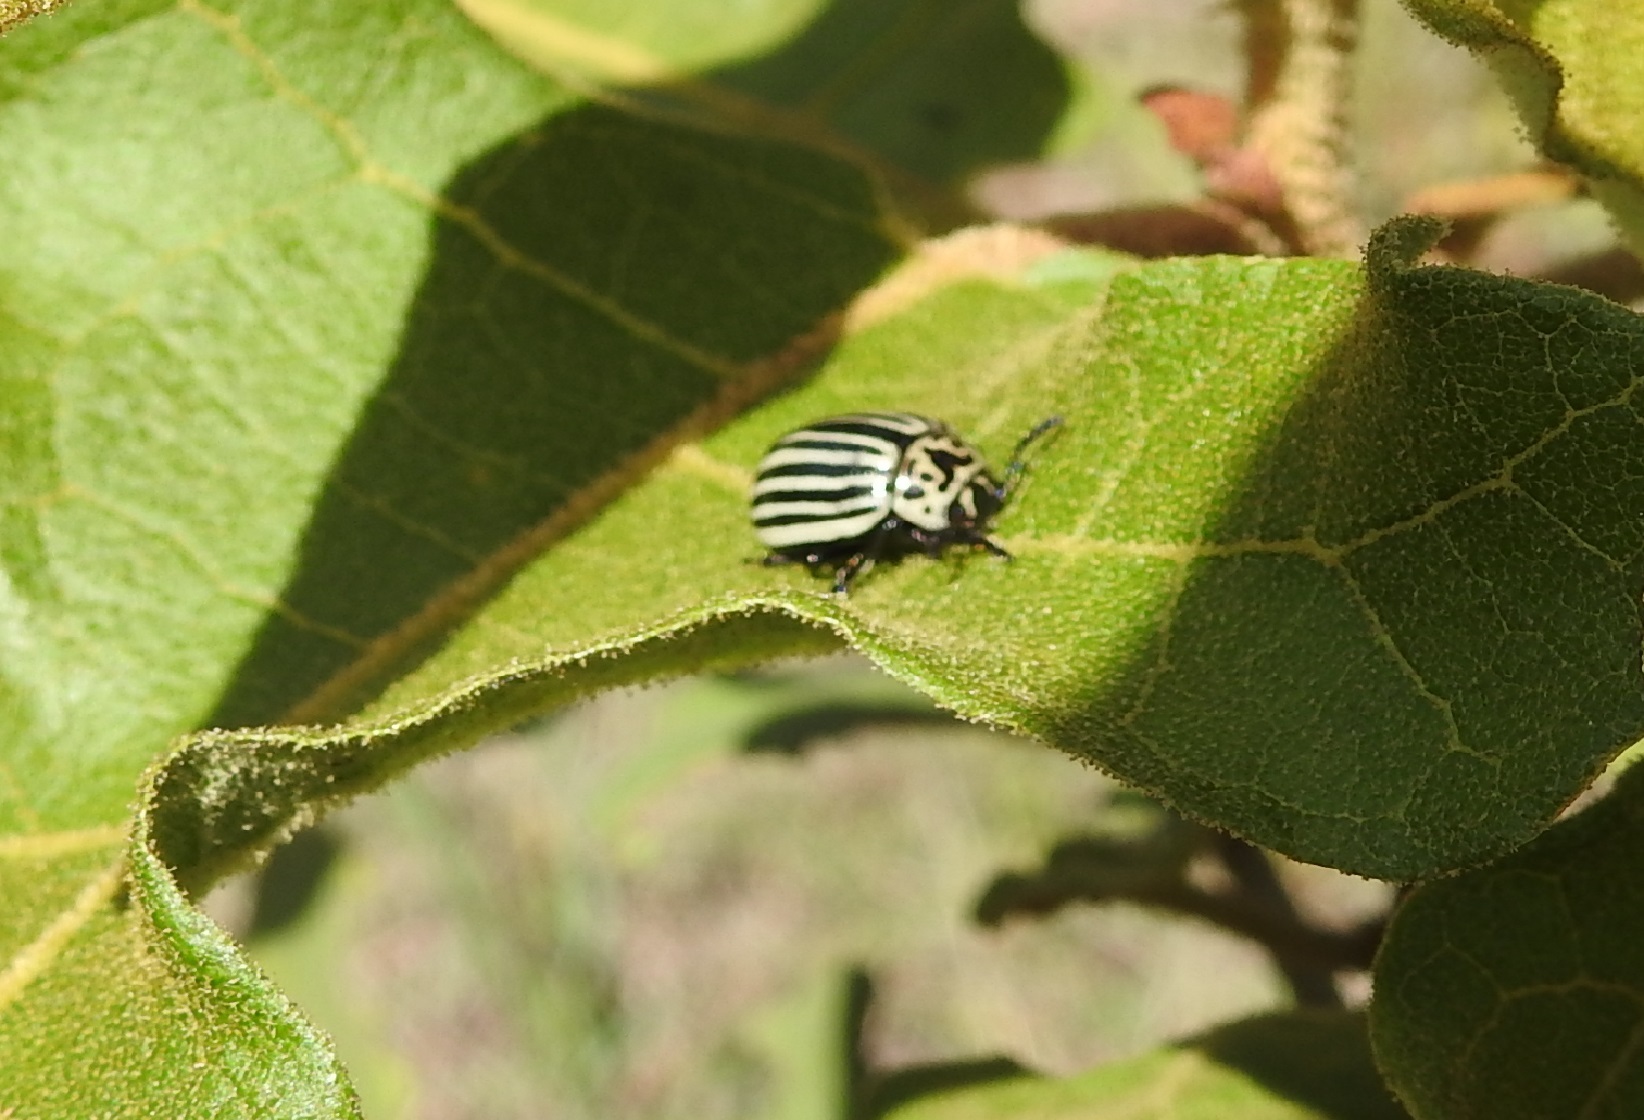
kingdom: Animalia
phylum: Arthropoda
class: Insecta
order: Coleoptera
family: Chrysomelidae
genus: Leptinotarsa
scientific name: Leptinotarsa
